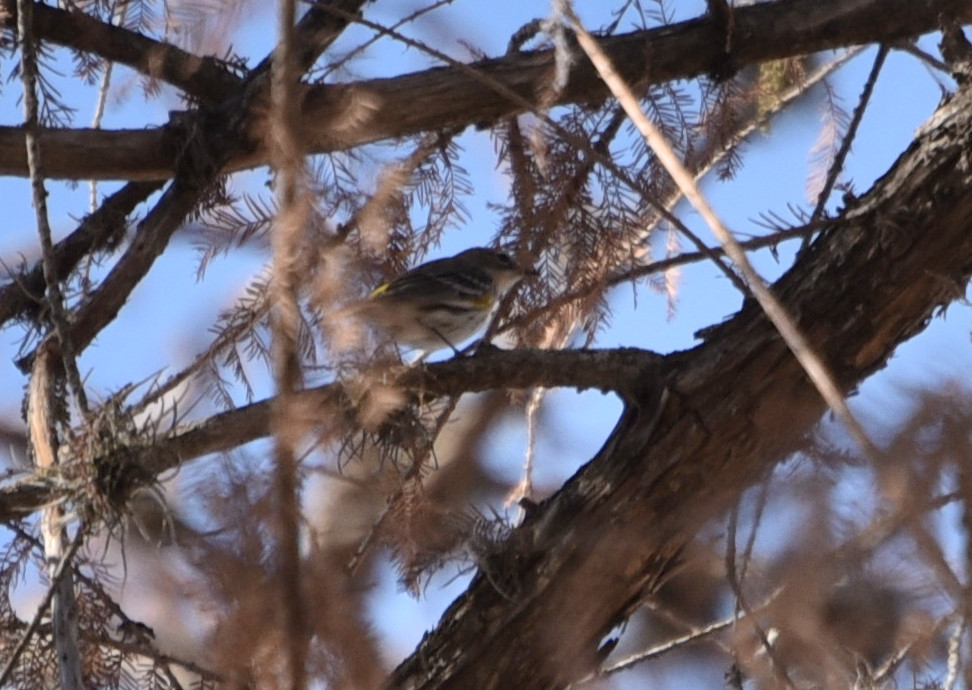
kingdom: Animalia
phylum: Chordata
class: Aves
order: Passeriformes
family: Parulidae
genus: Setophaga
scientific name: Setophaga coronata
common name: Myrtle warbler
